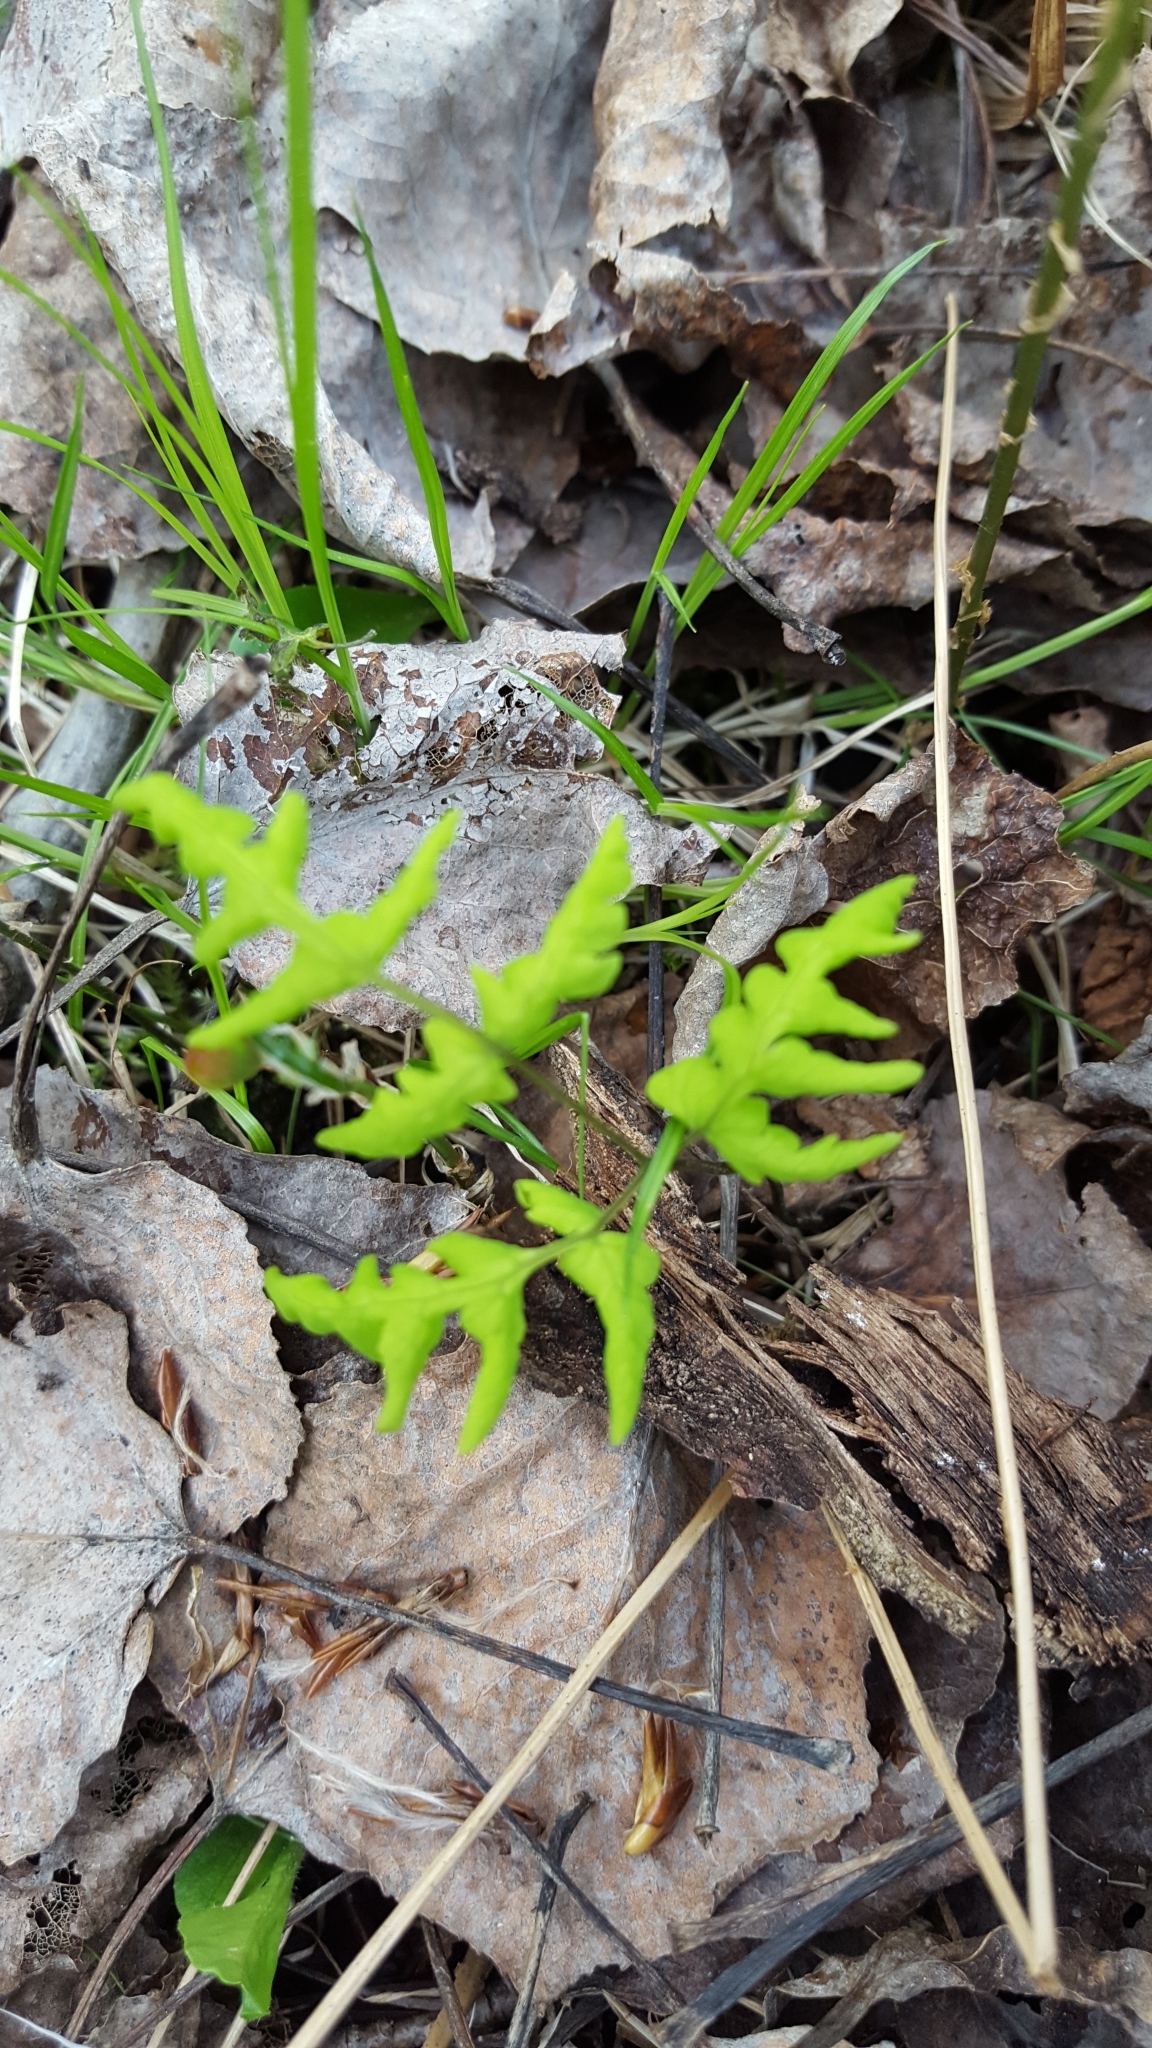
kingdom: Plantae
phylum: Tracheophyta
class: Polypodiopsida
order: Polypodiales
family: Cystopteridaceae
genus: Gymnocarpium
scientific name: Gymnocarpium dryopteris
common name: Oak fern
